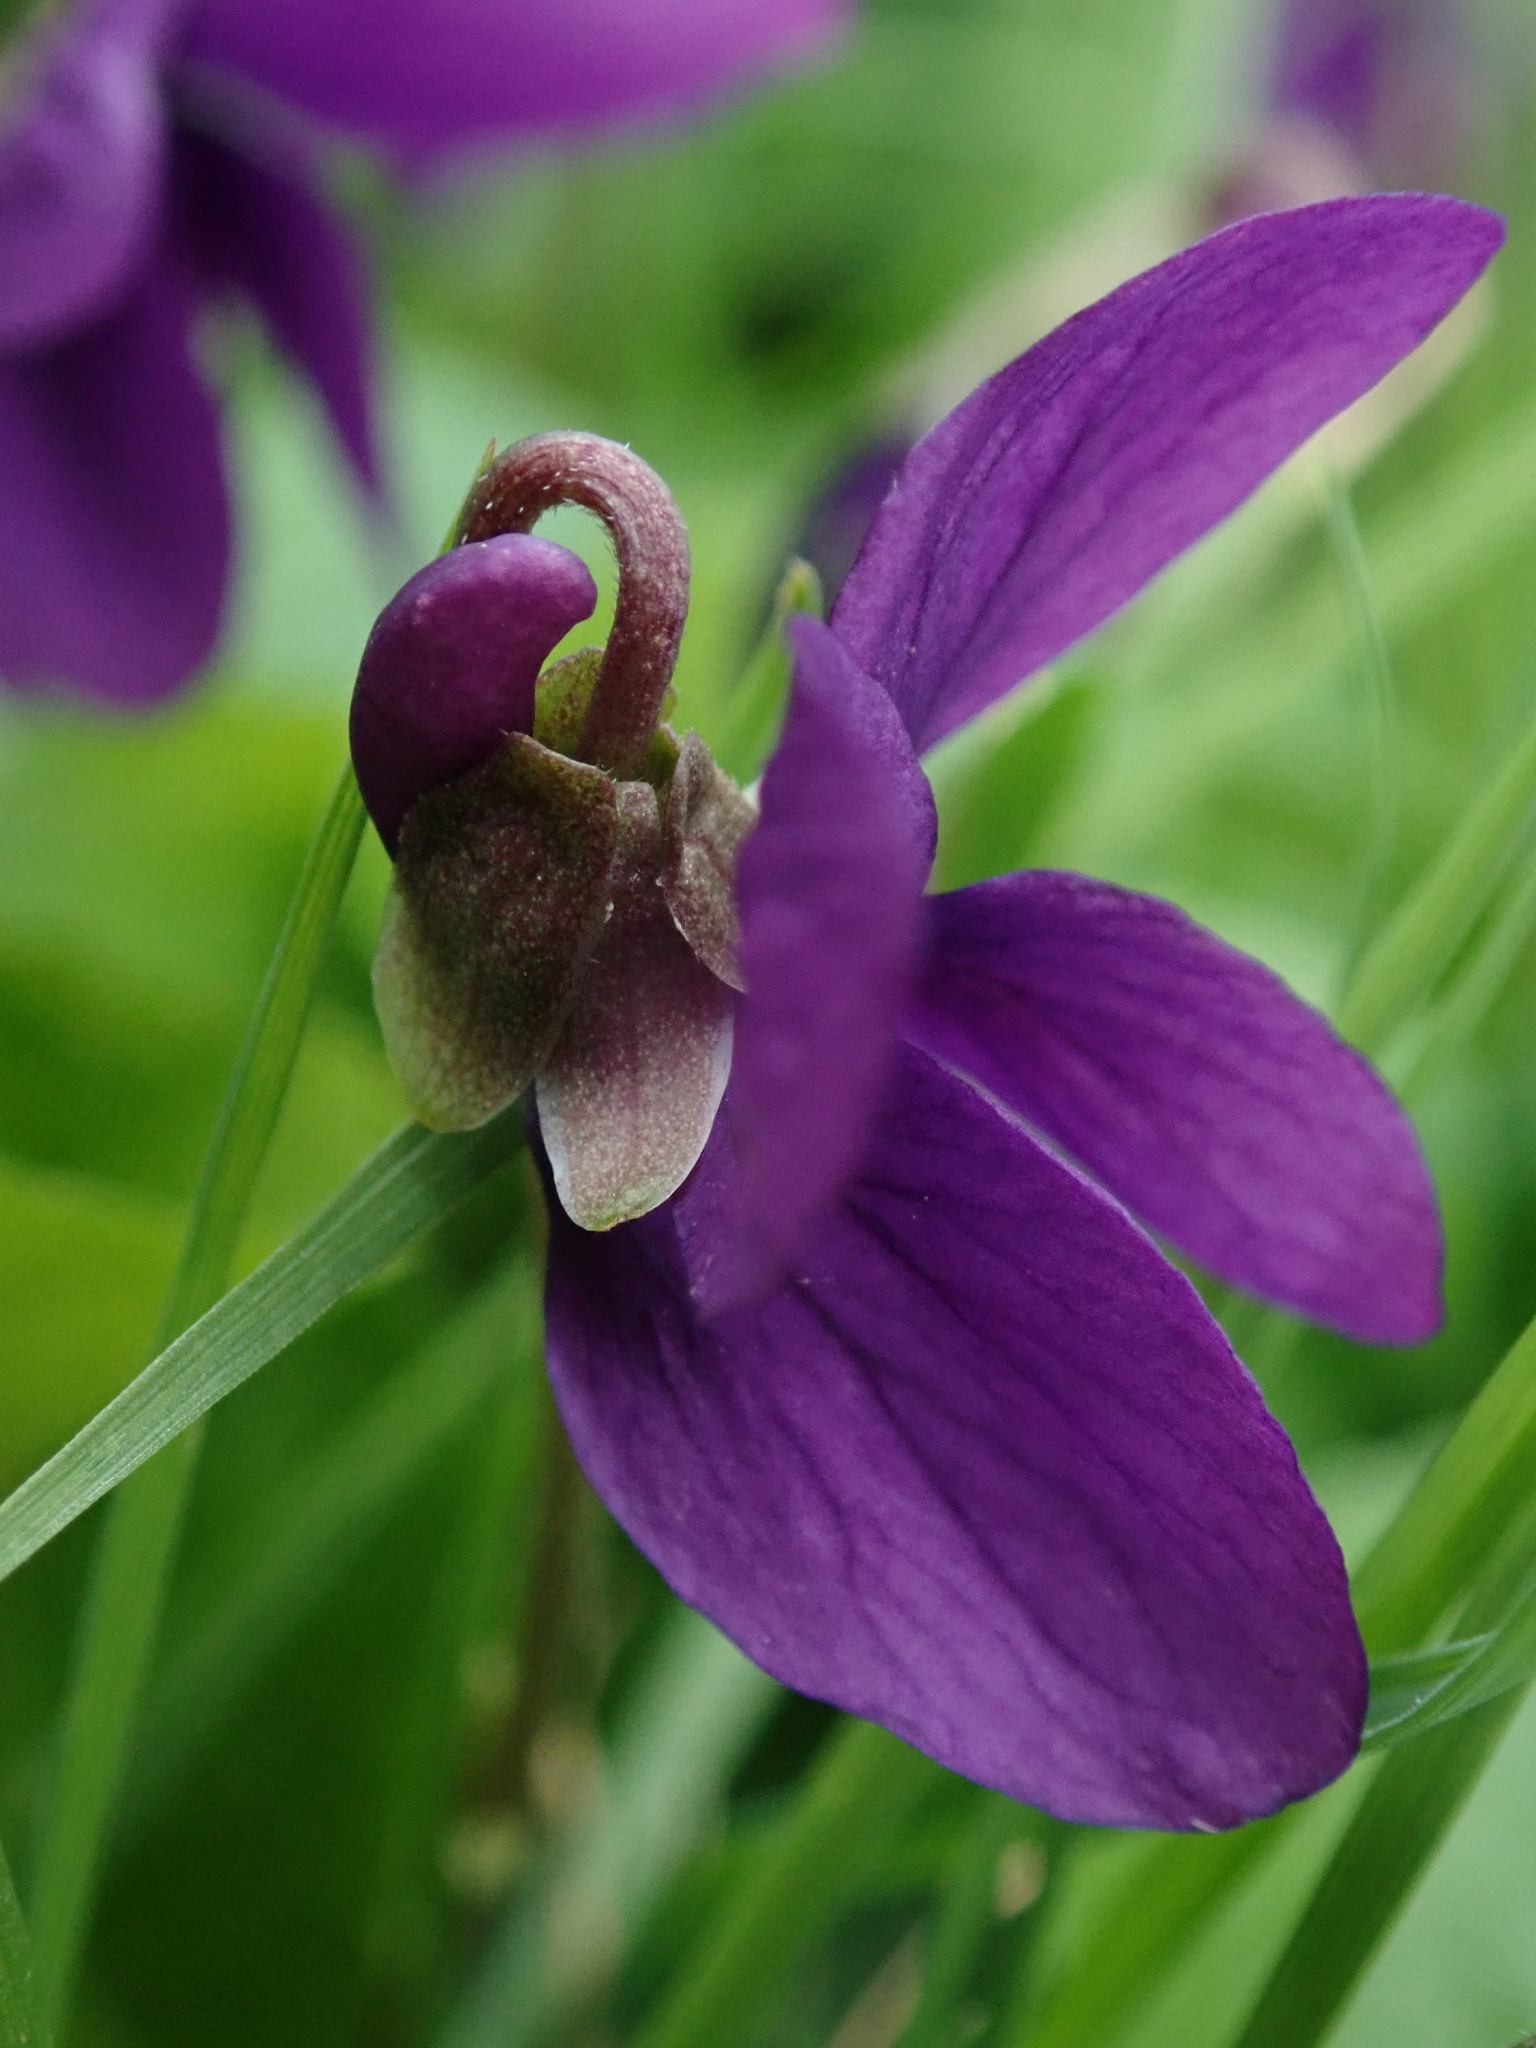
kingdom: Plantae
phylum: Tracheophyta
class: Magnoliopsida
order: Malpighiales
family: Violaceae
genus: Viola
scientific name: Viola odorata
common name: Sweet violet
